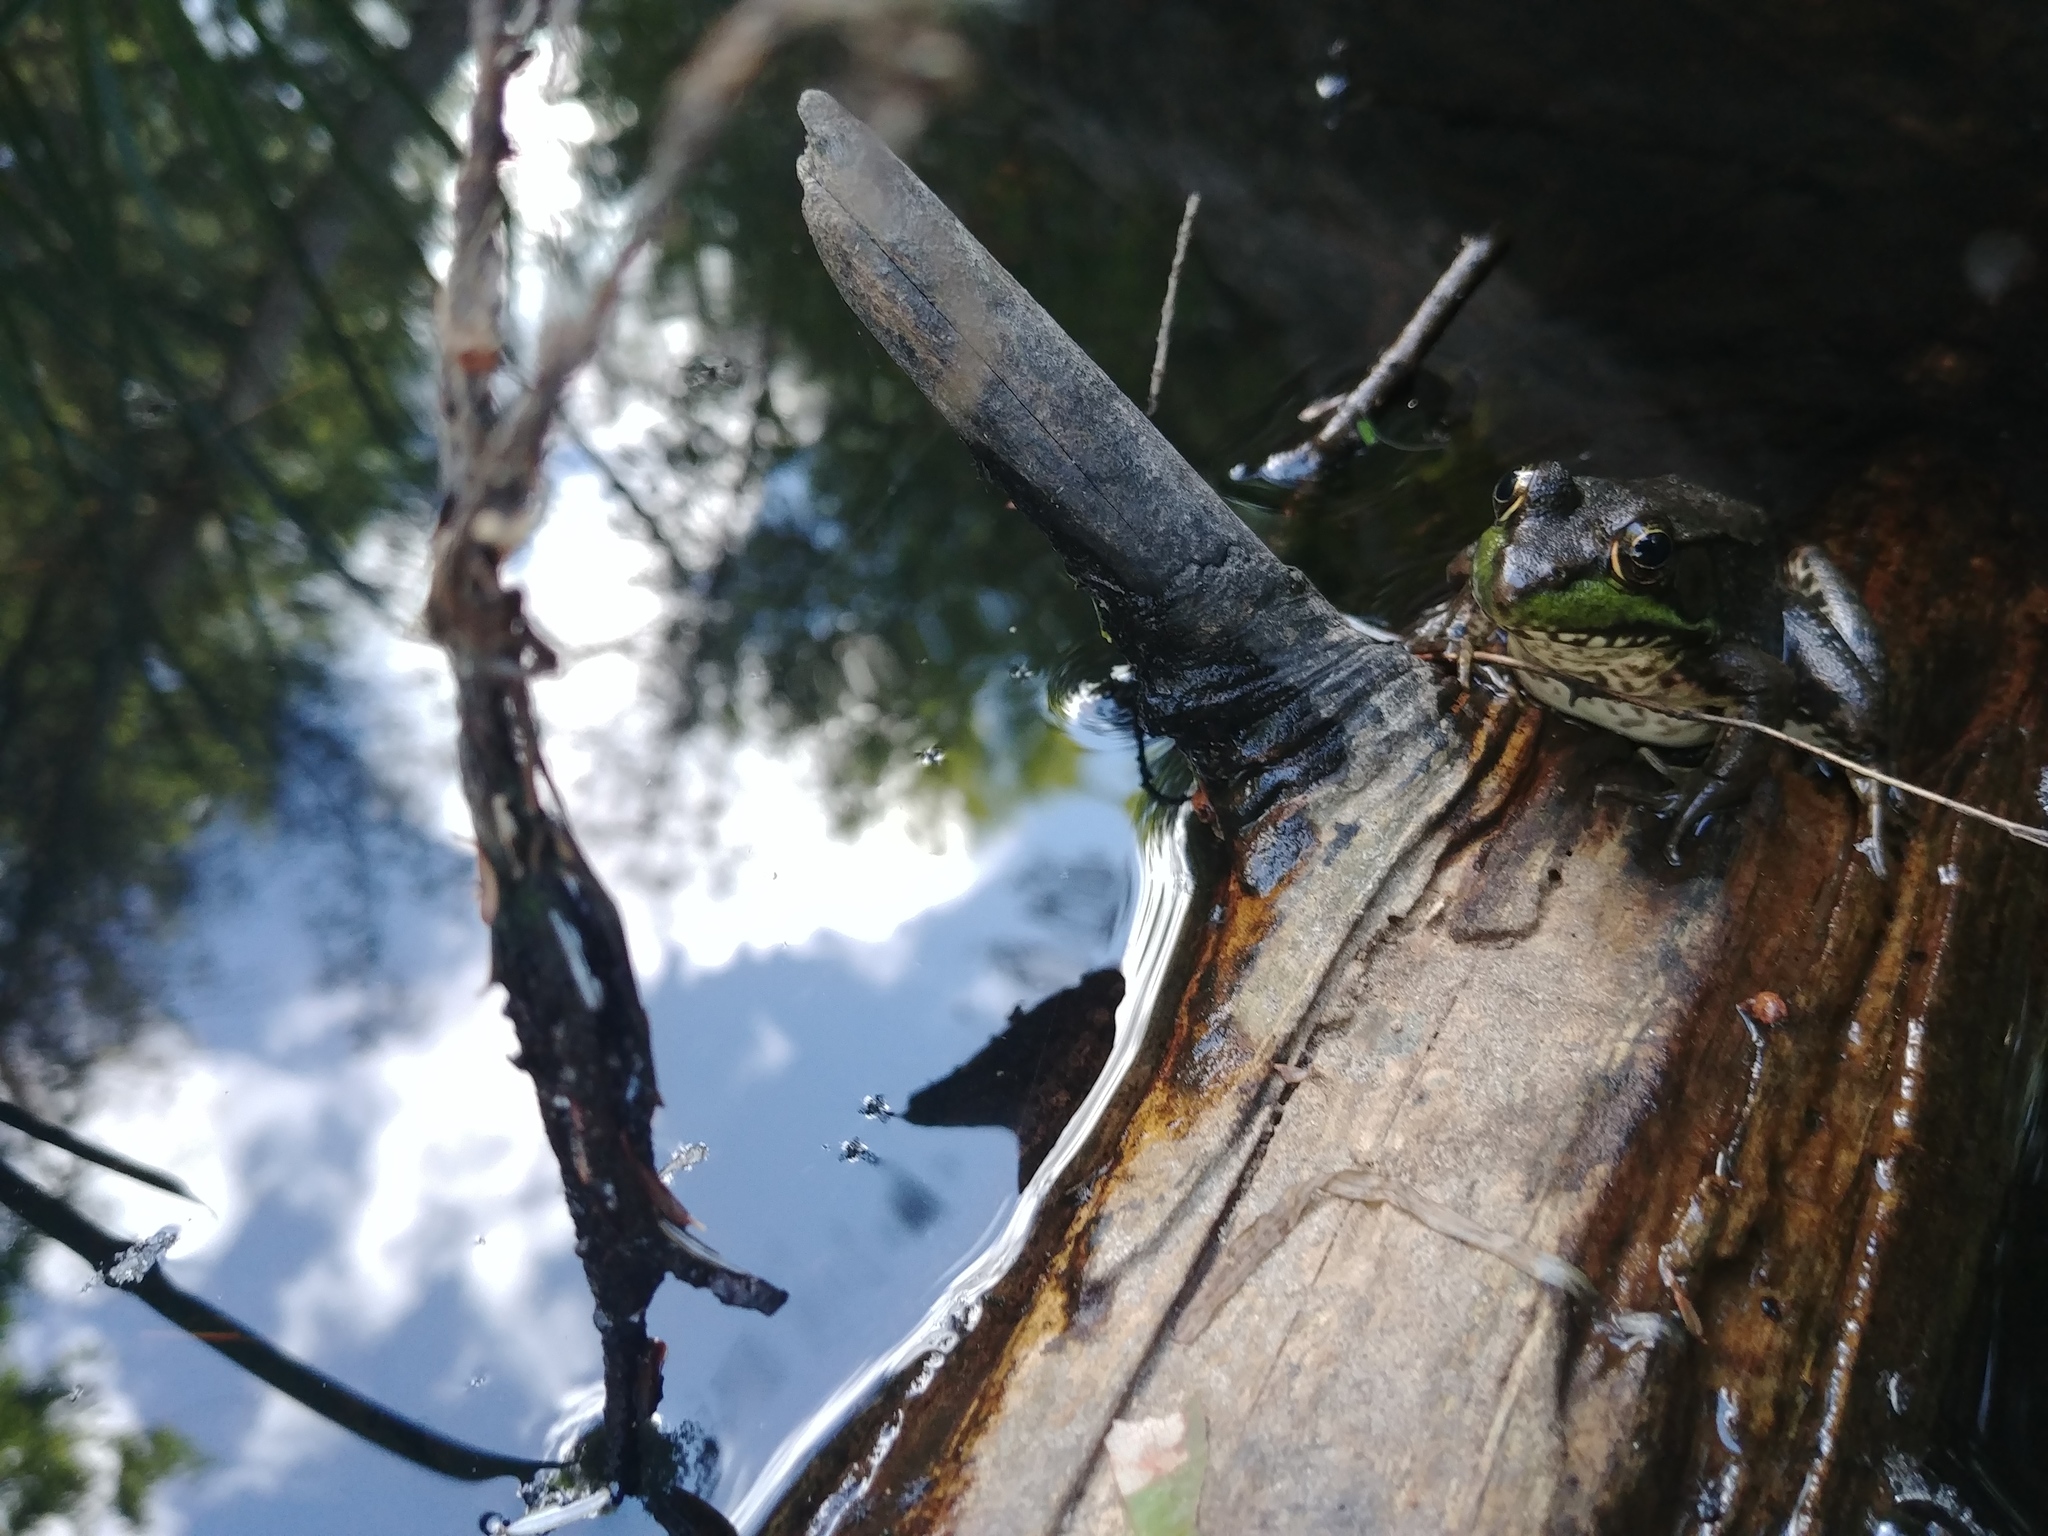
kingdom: Animalia
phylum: Chordata
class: Amphibia
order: Anura
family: Ranidae
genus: Lithobates
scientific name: Lithobates clamitans
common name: Green frog
